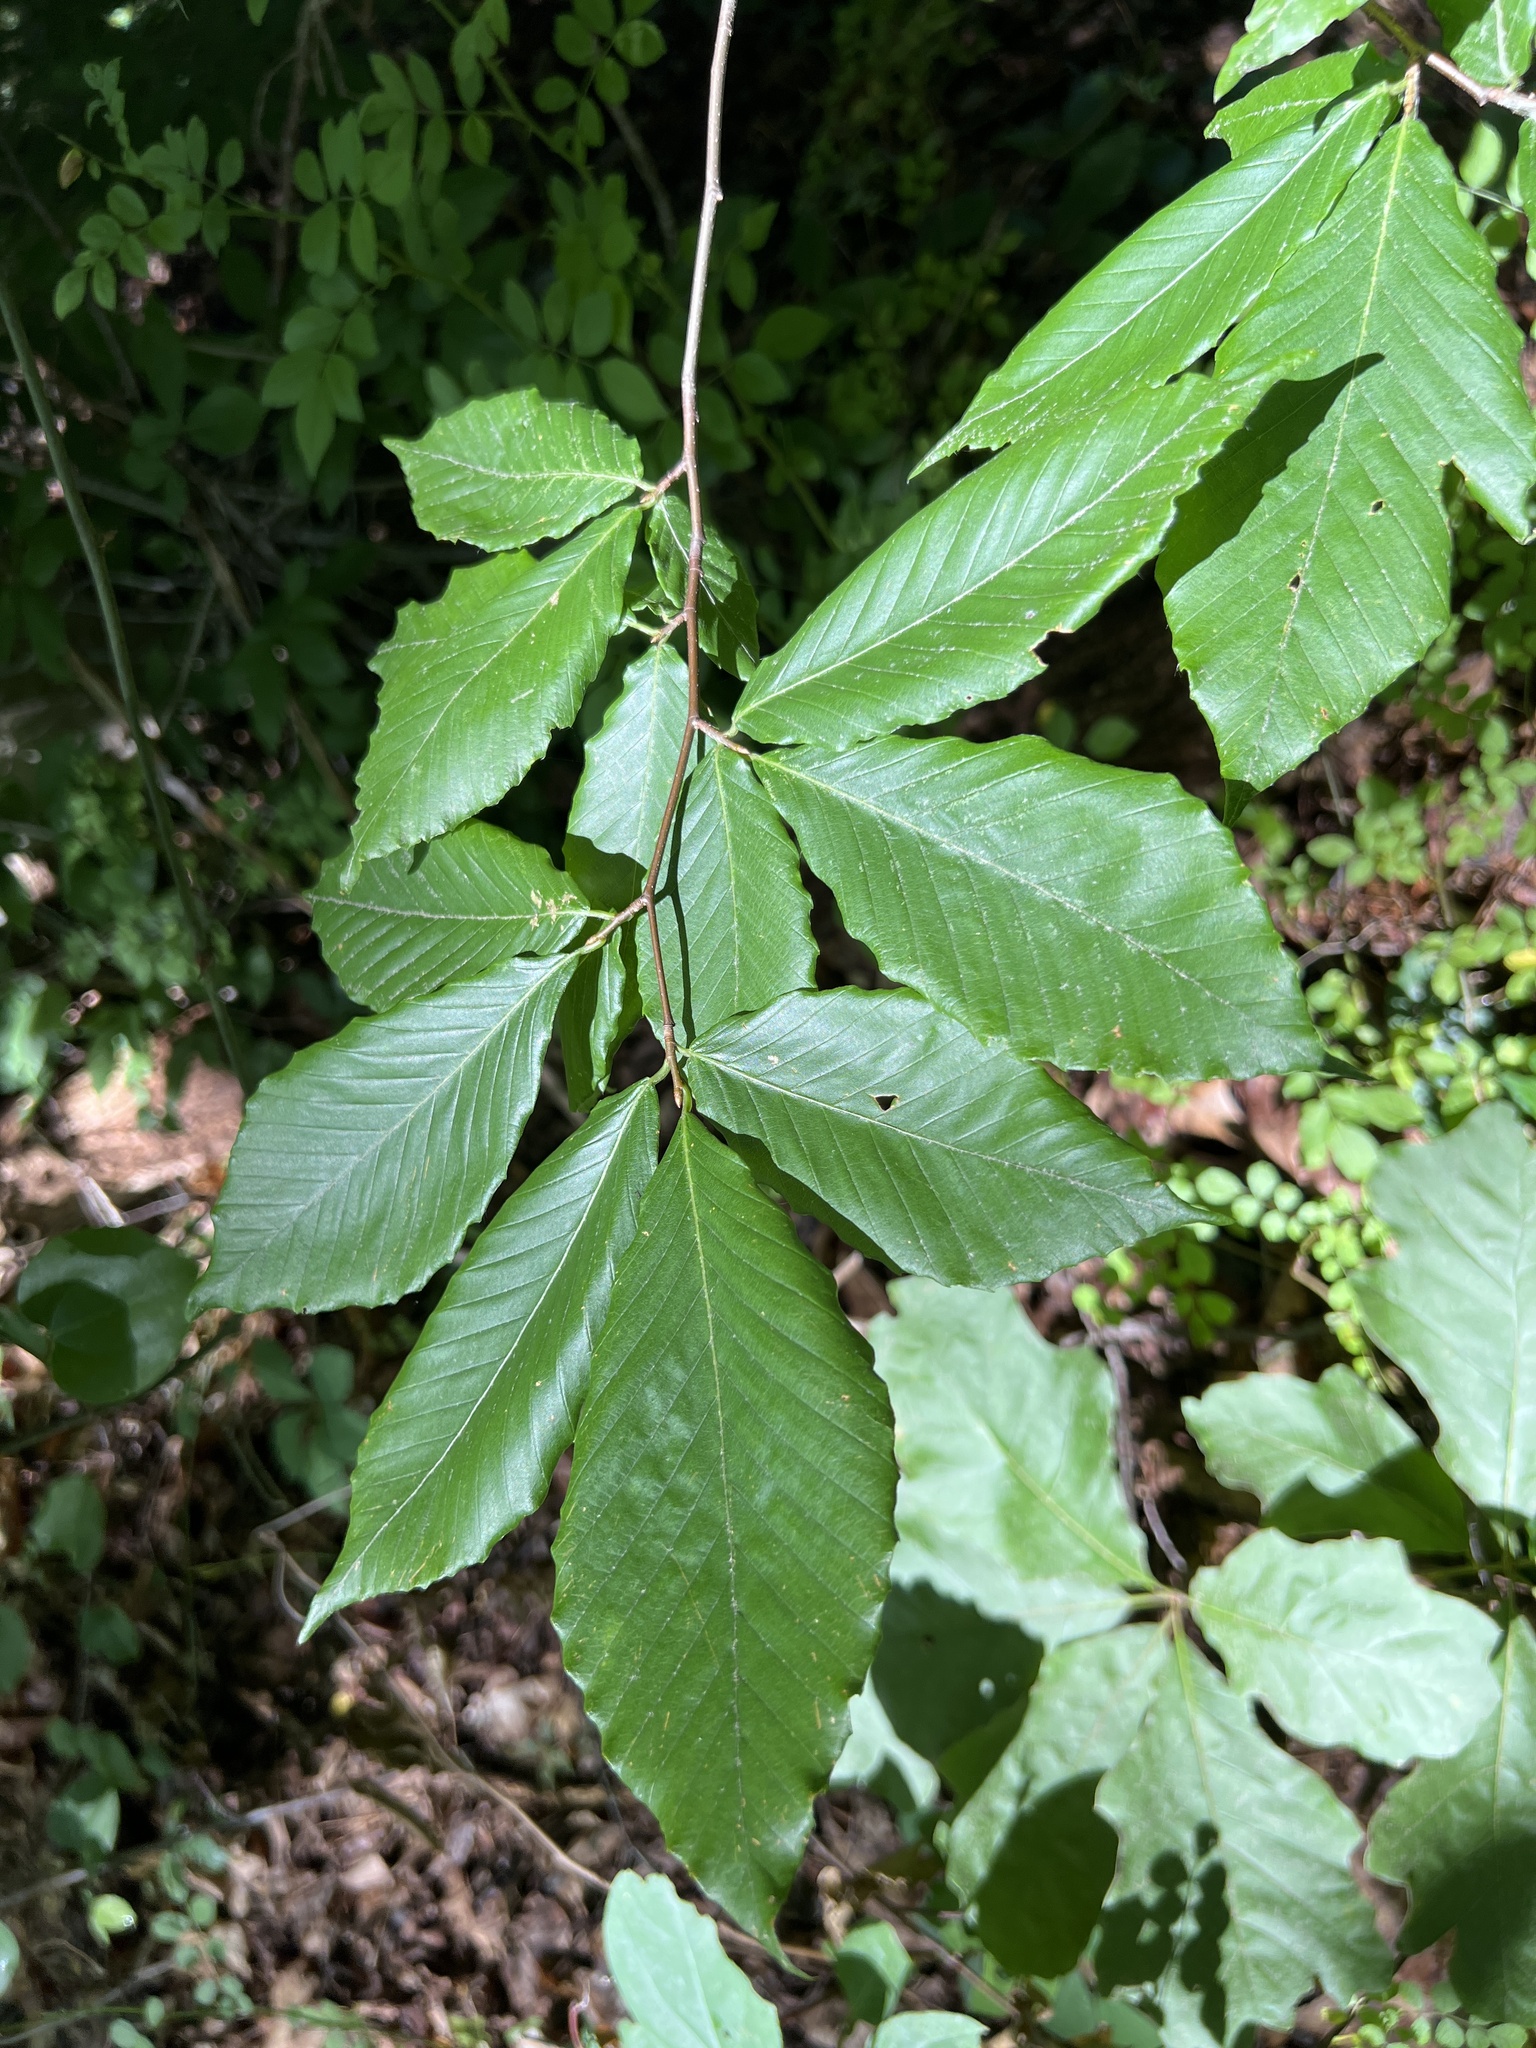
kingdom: Plantae
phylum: Tracheophyta
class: Magnoliopsida
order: Fagales
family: Fagaceae
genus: Fagus
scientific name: Fagus grandifolia
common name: American beech
